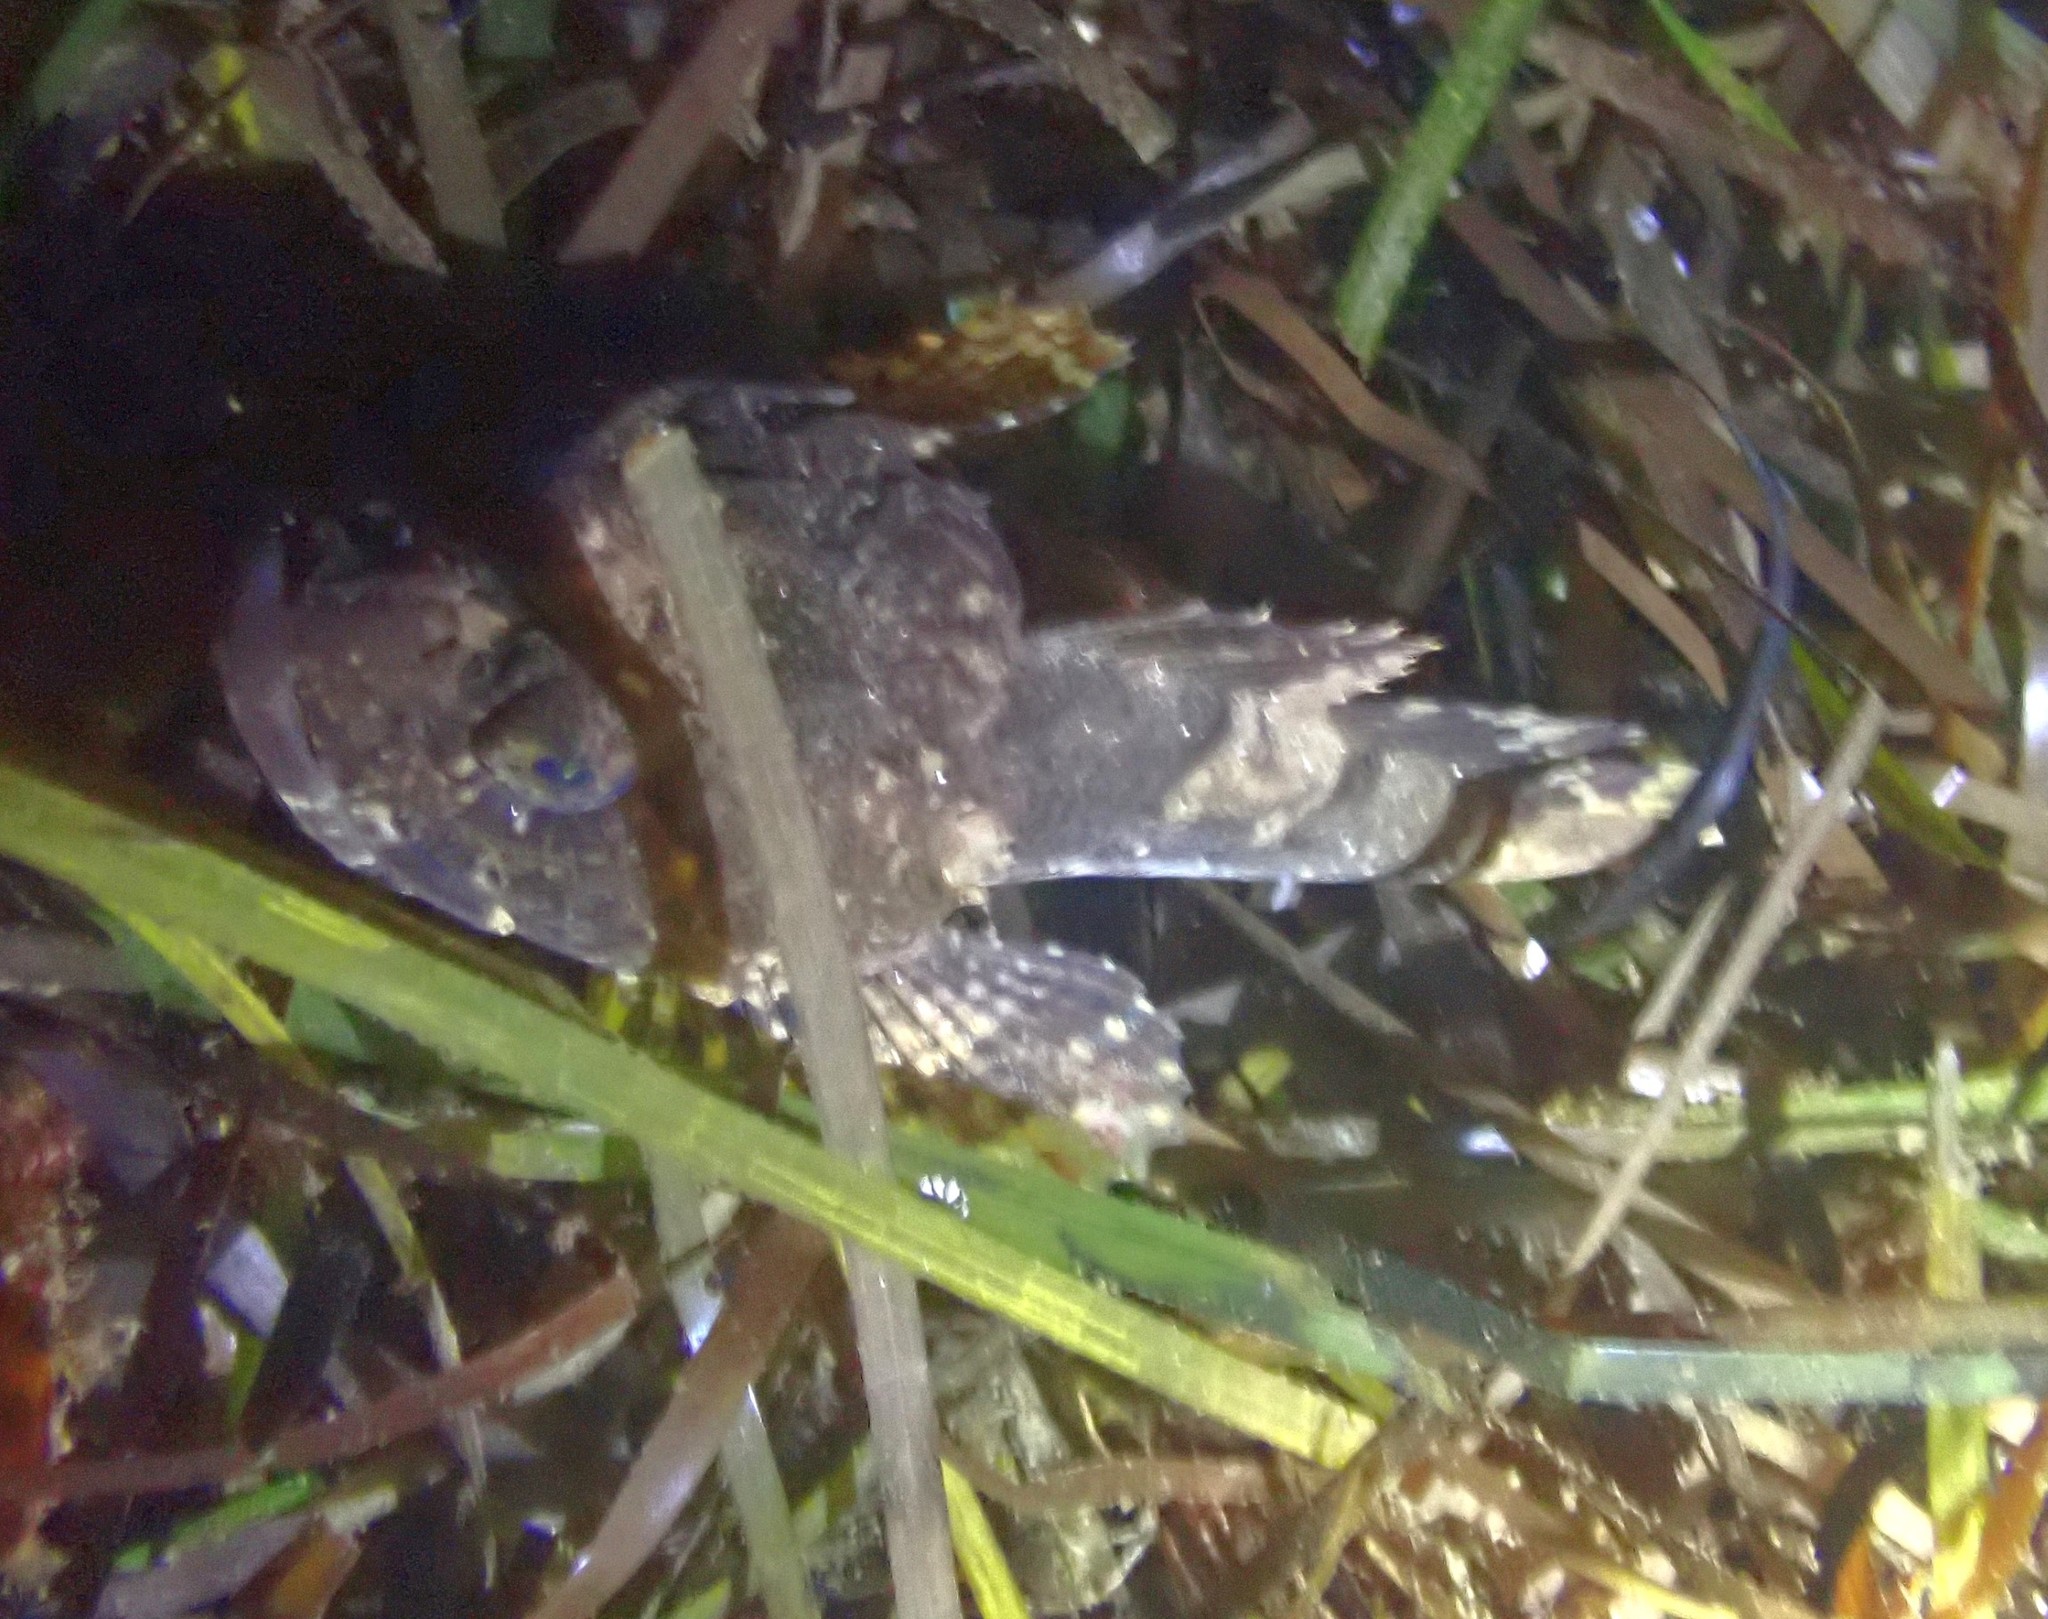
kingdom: Animalia
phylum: Chordata
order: Scorpaeniformes
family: Cottidae
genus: Myoxocephalus
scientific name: Myoxocephalus scorpius
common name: Shorthorn sculpin
